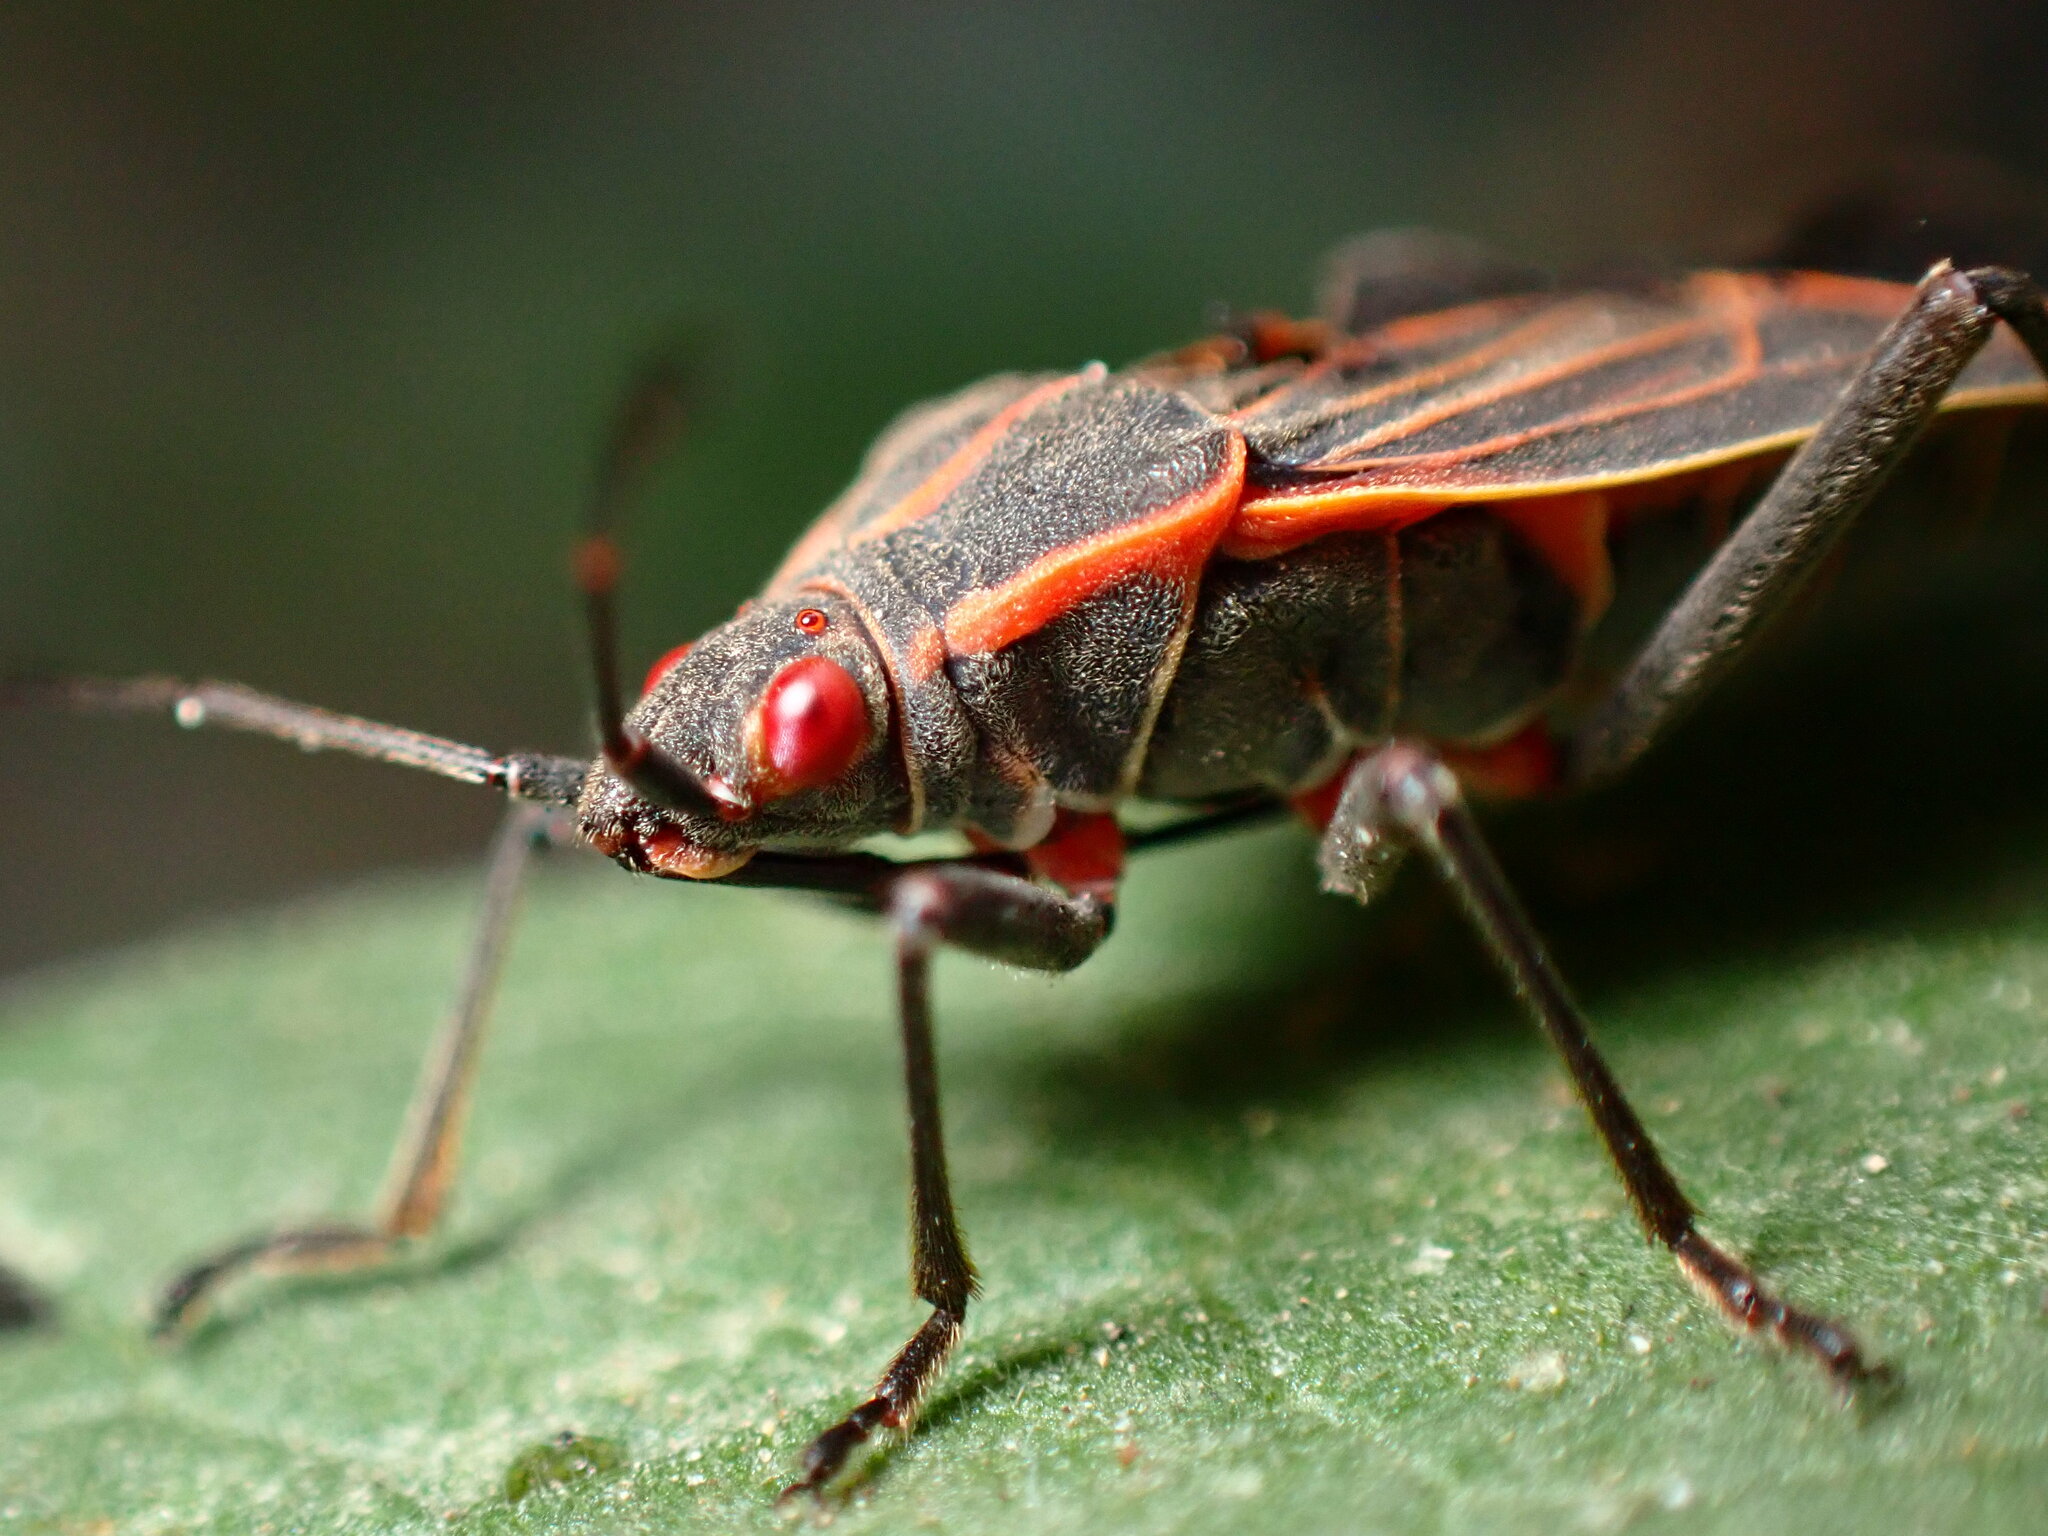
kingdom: Animalia
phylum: Arthropoda
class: Insecta
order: Hemiptera
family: Rhopalidae
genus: Boisea
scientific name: Boisea rubrolineata
